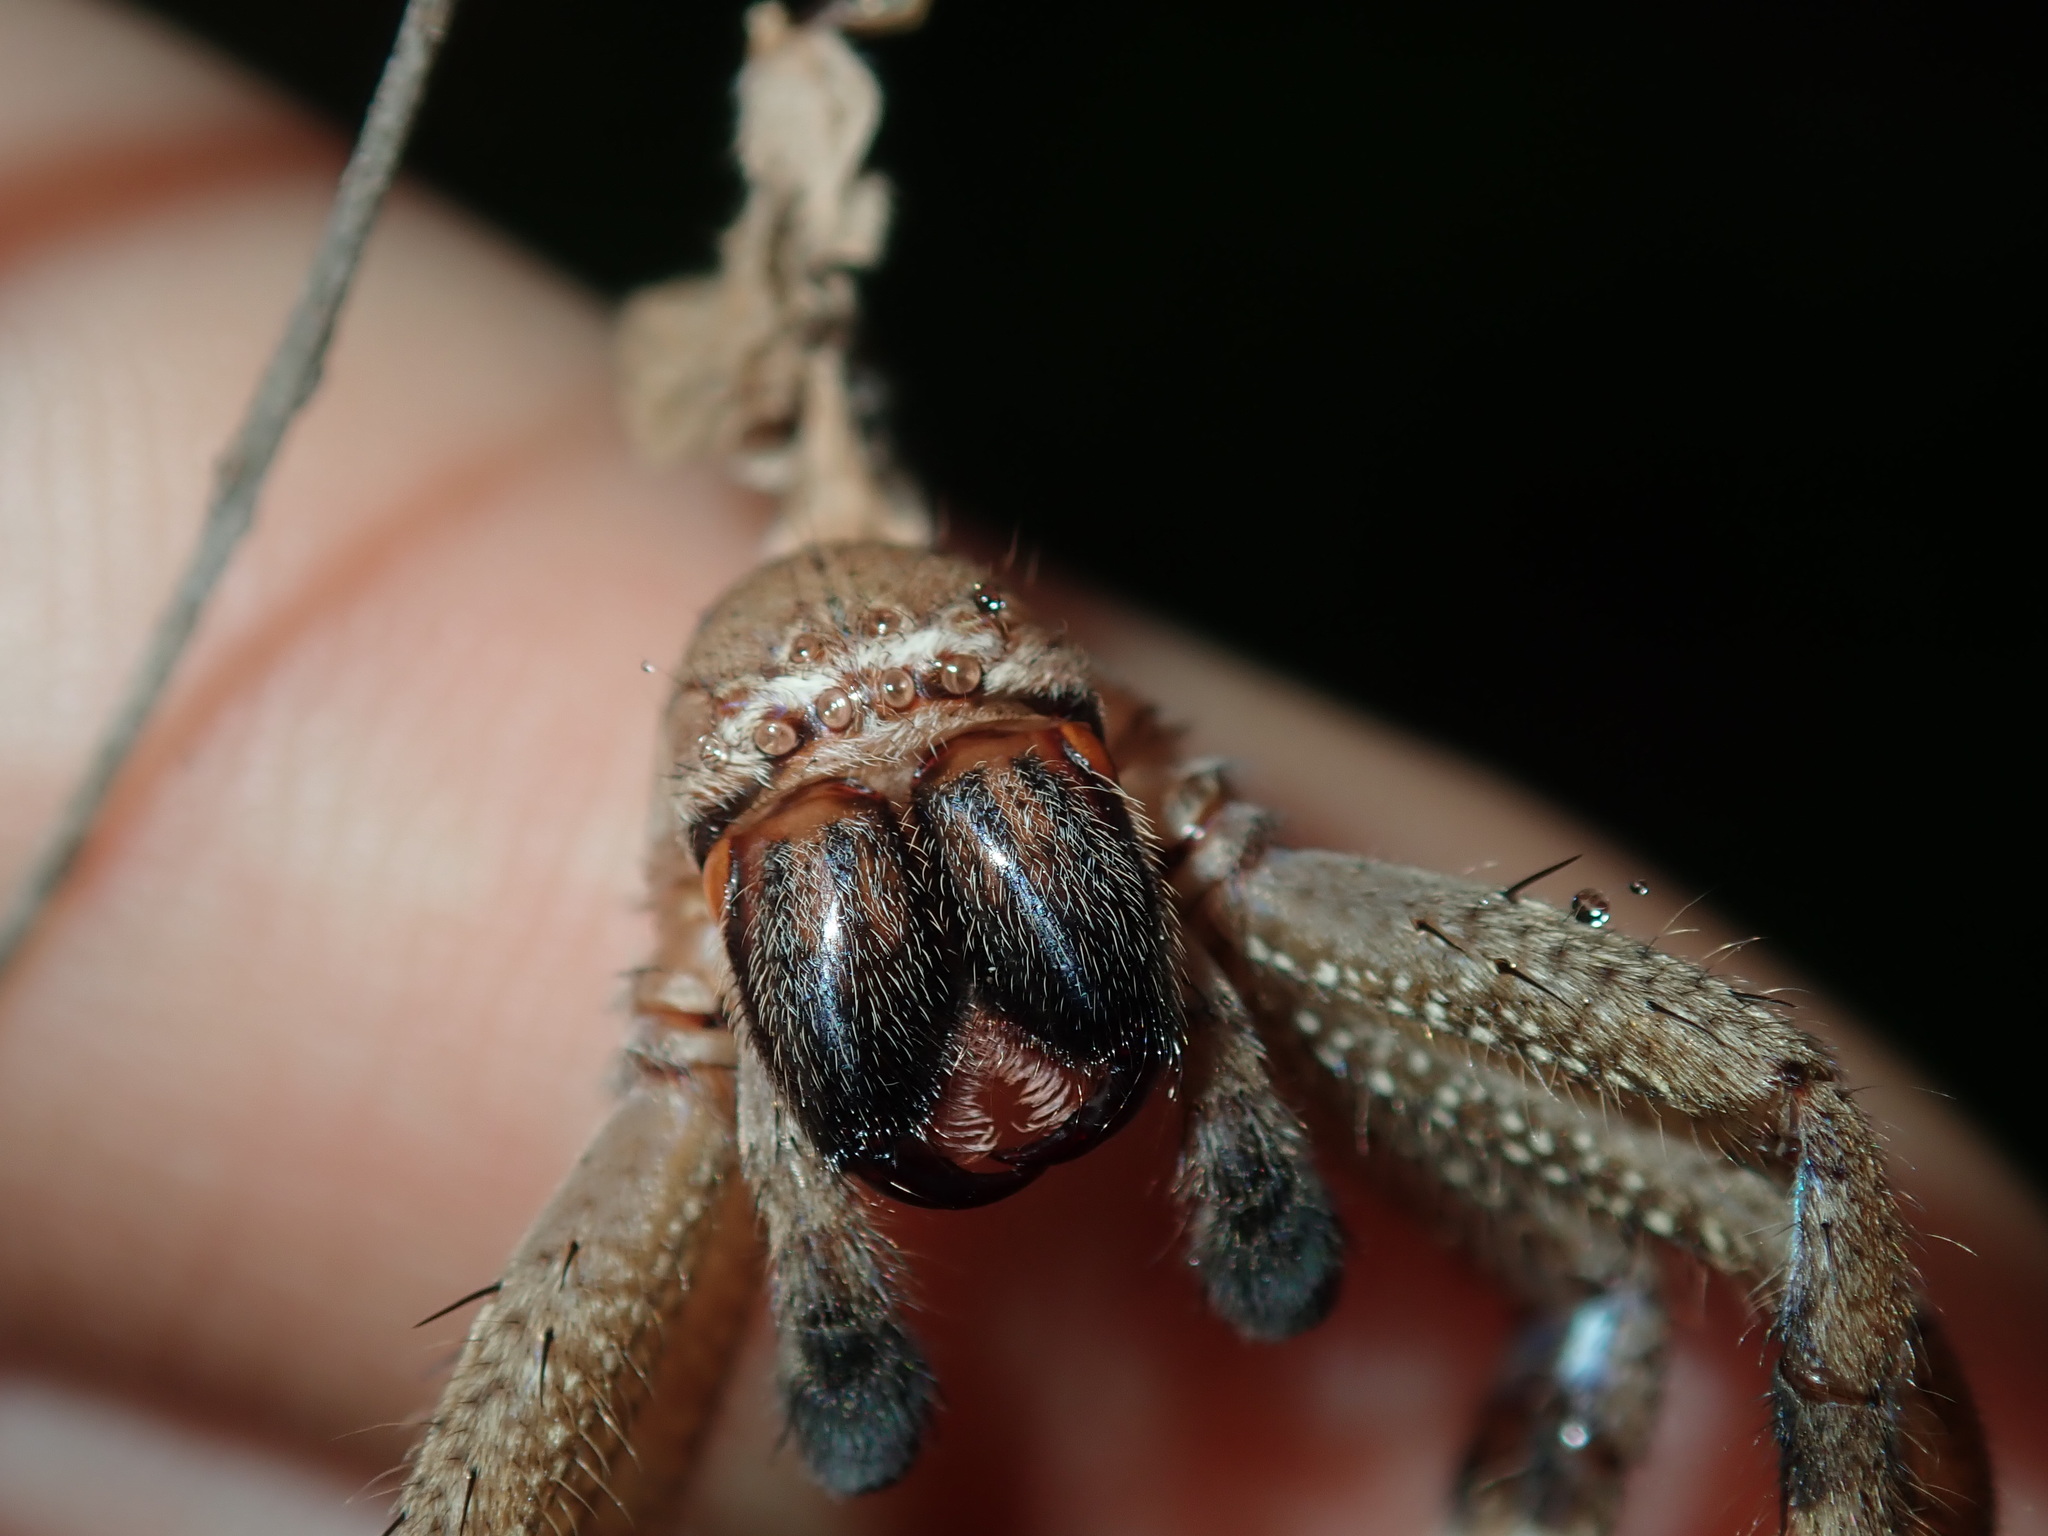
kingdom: Animalia
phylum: Arthropoda
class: Arachnida
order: Araneae
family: Sparassidae
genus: Neosparassus
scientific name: Neosparassus calligaster
